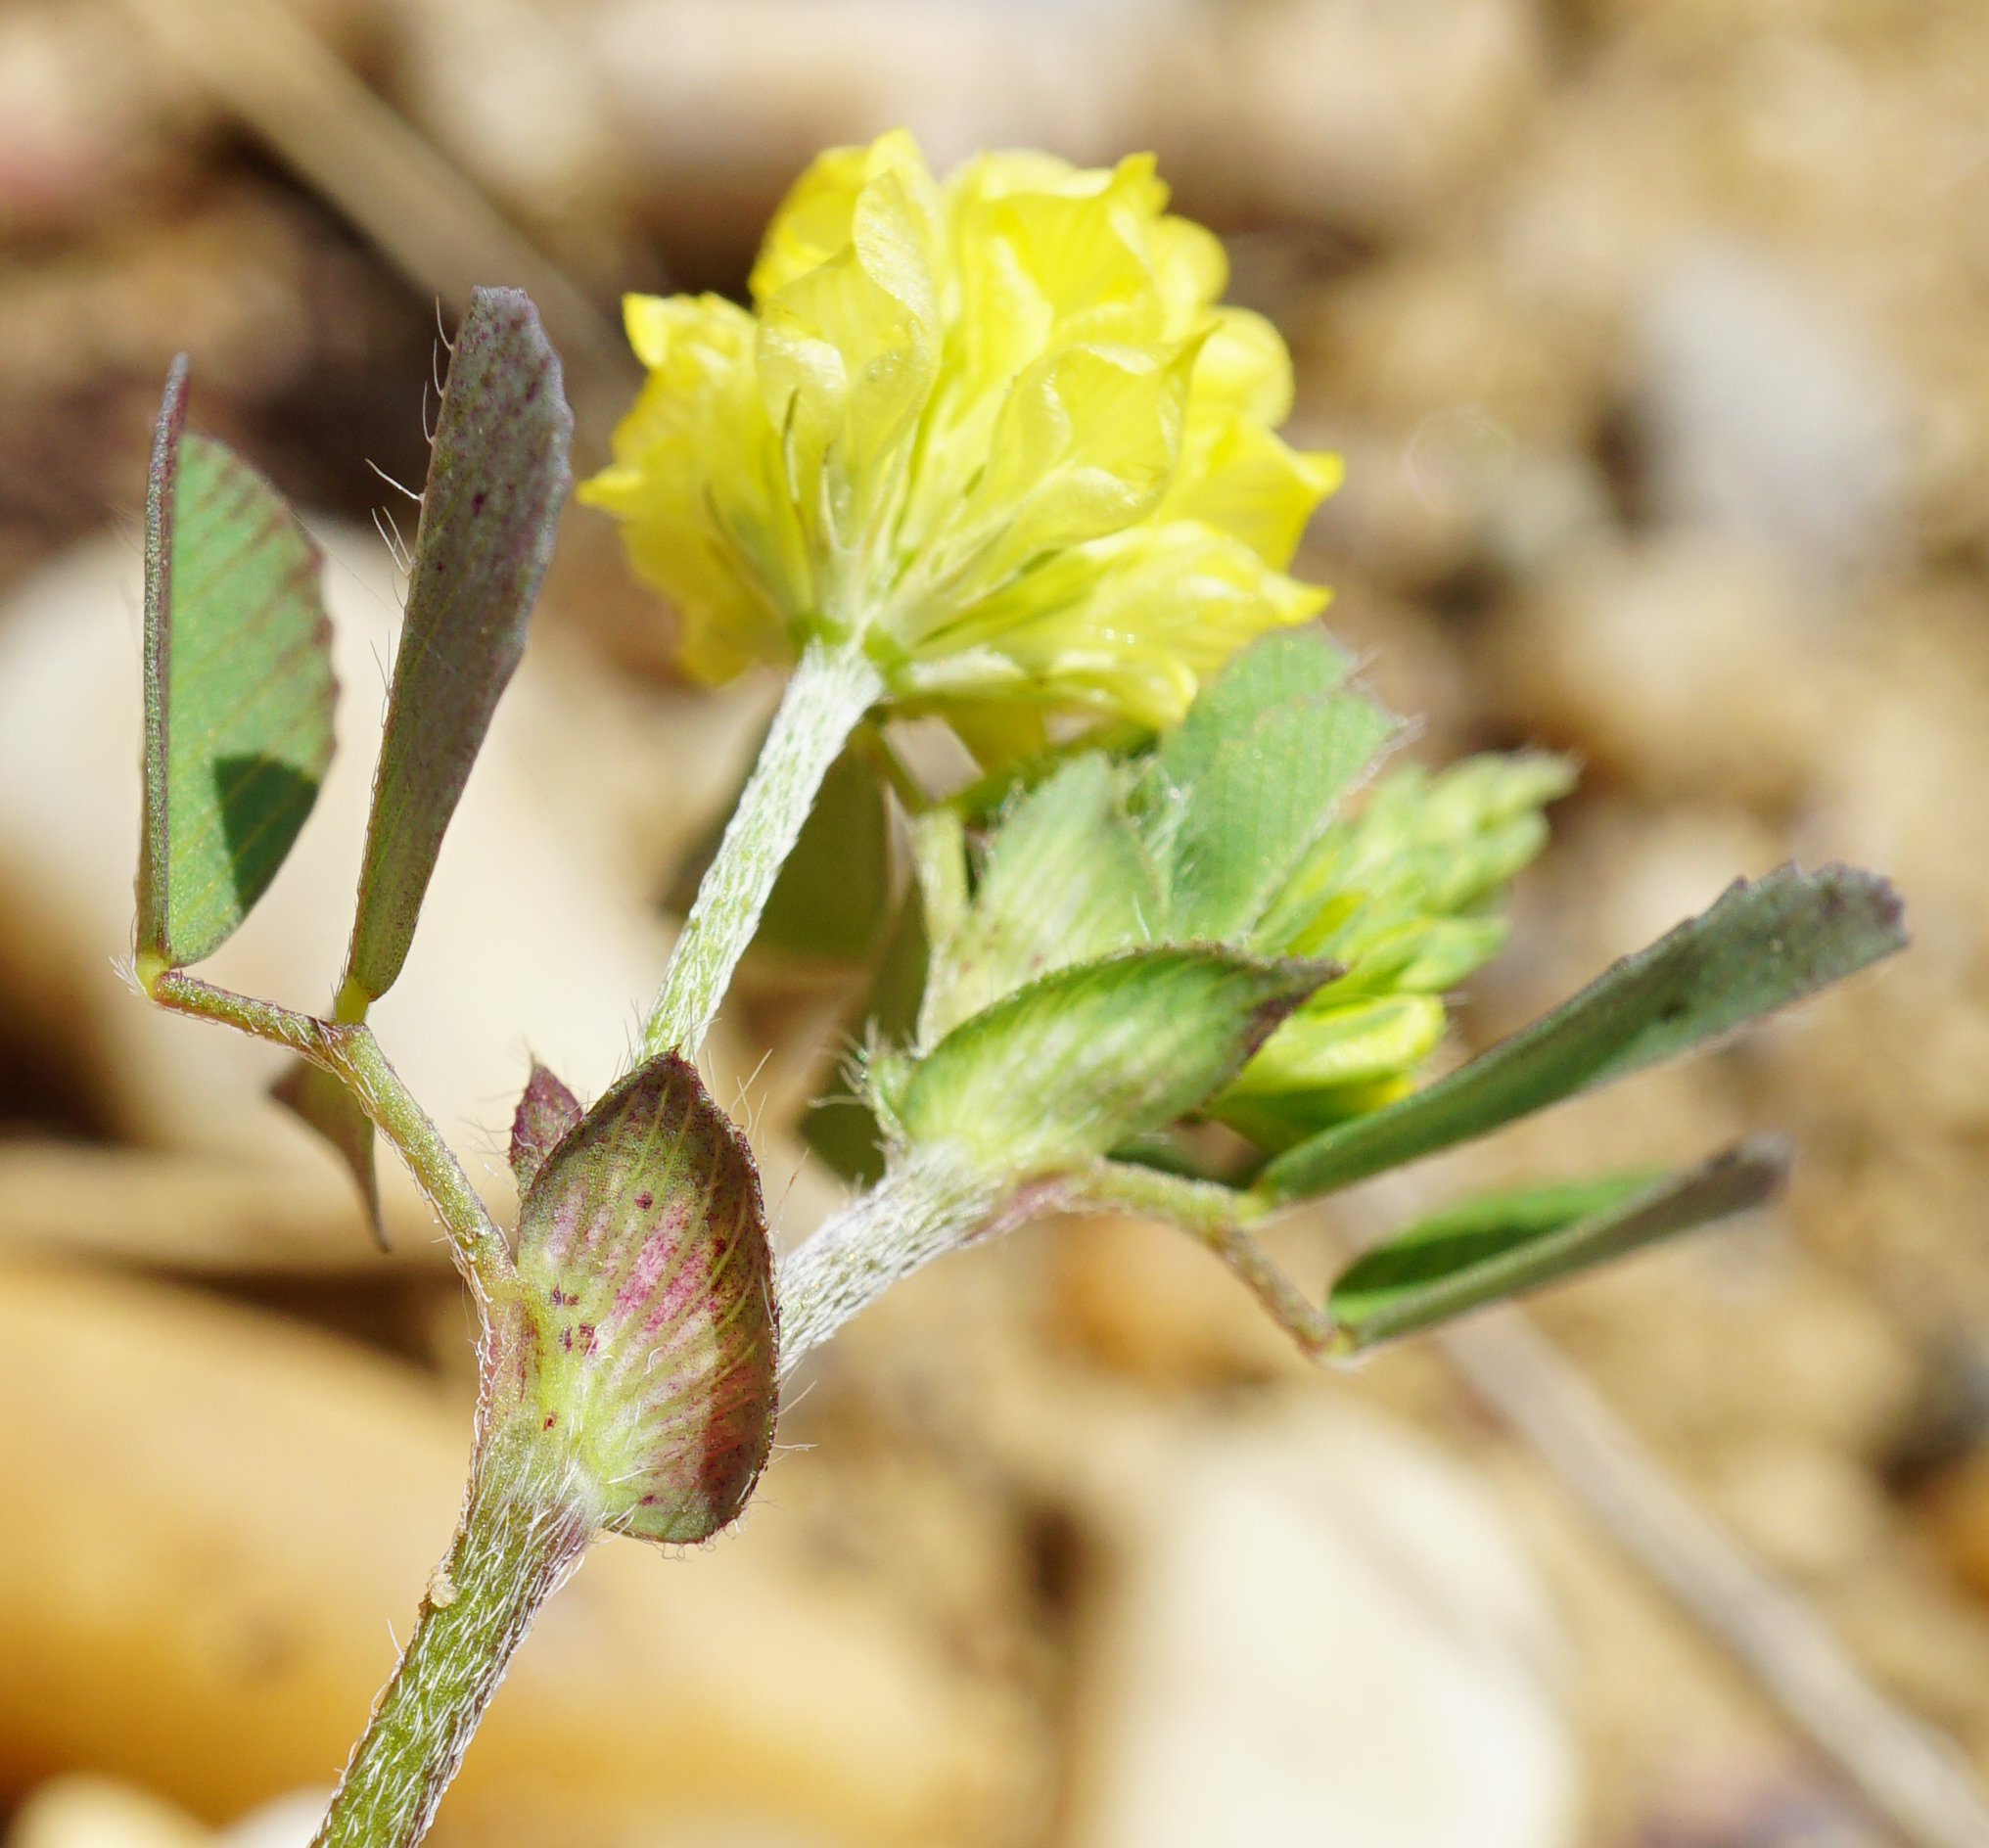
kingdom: Plantae
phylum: Tracheophyta
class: Magnoliopsida
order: Fabales
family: Fabaceae
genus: Trifolium
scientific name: Trifolium campestre
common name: Field clover
